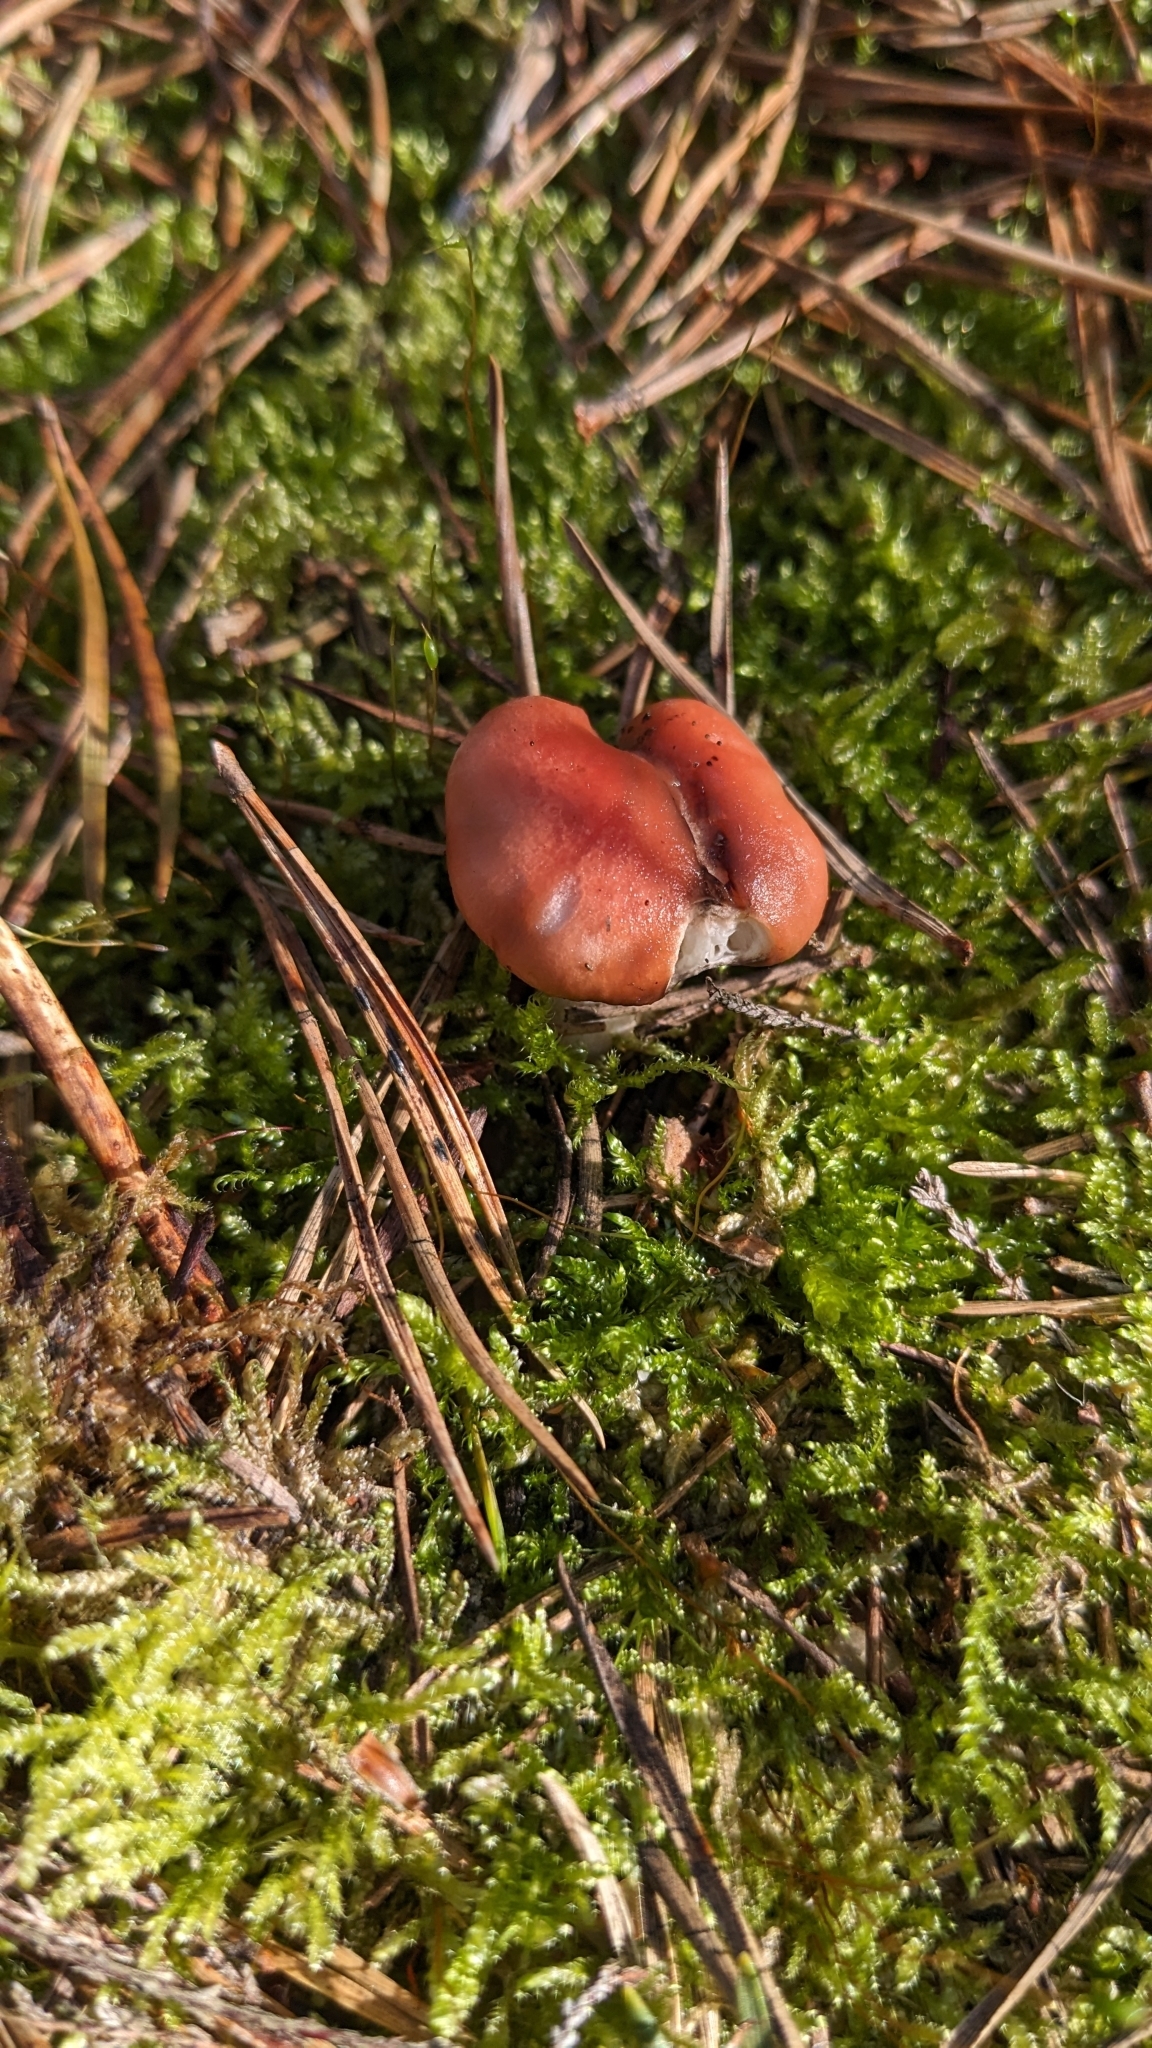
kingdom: Fungi
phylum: Basidiomycota
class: Agaricomycetes
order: Boletales
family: Gomphidiaceae
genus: Gomphidius
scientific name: Gomphidius roseus
